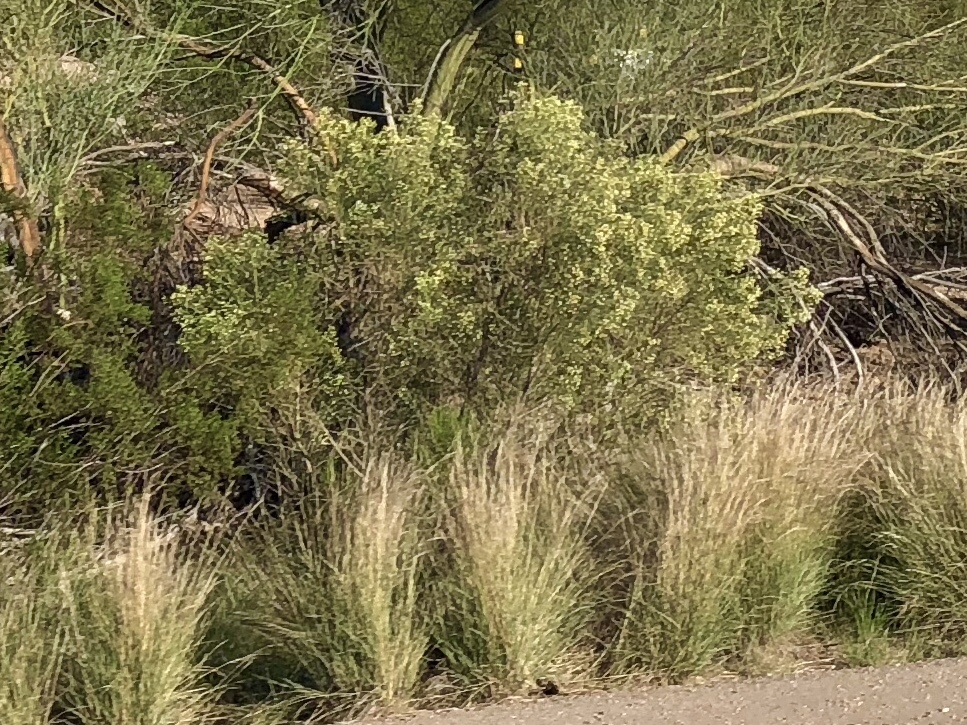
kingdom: Plantae
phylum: Tracheophyta
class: Magnoliopsida
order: Asterales
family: Asteraceae
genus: Baccharis
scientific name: Baccharis sarothroides
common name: Desert-broom
